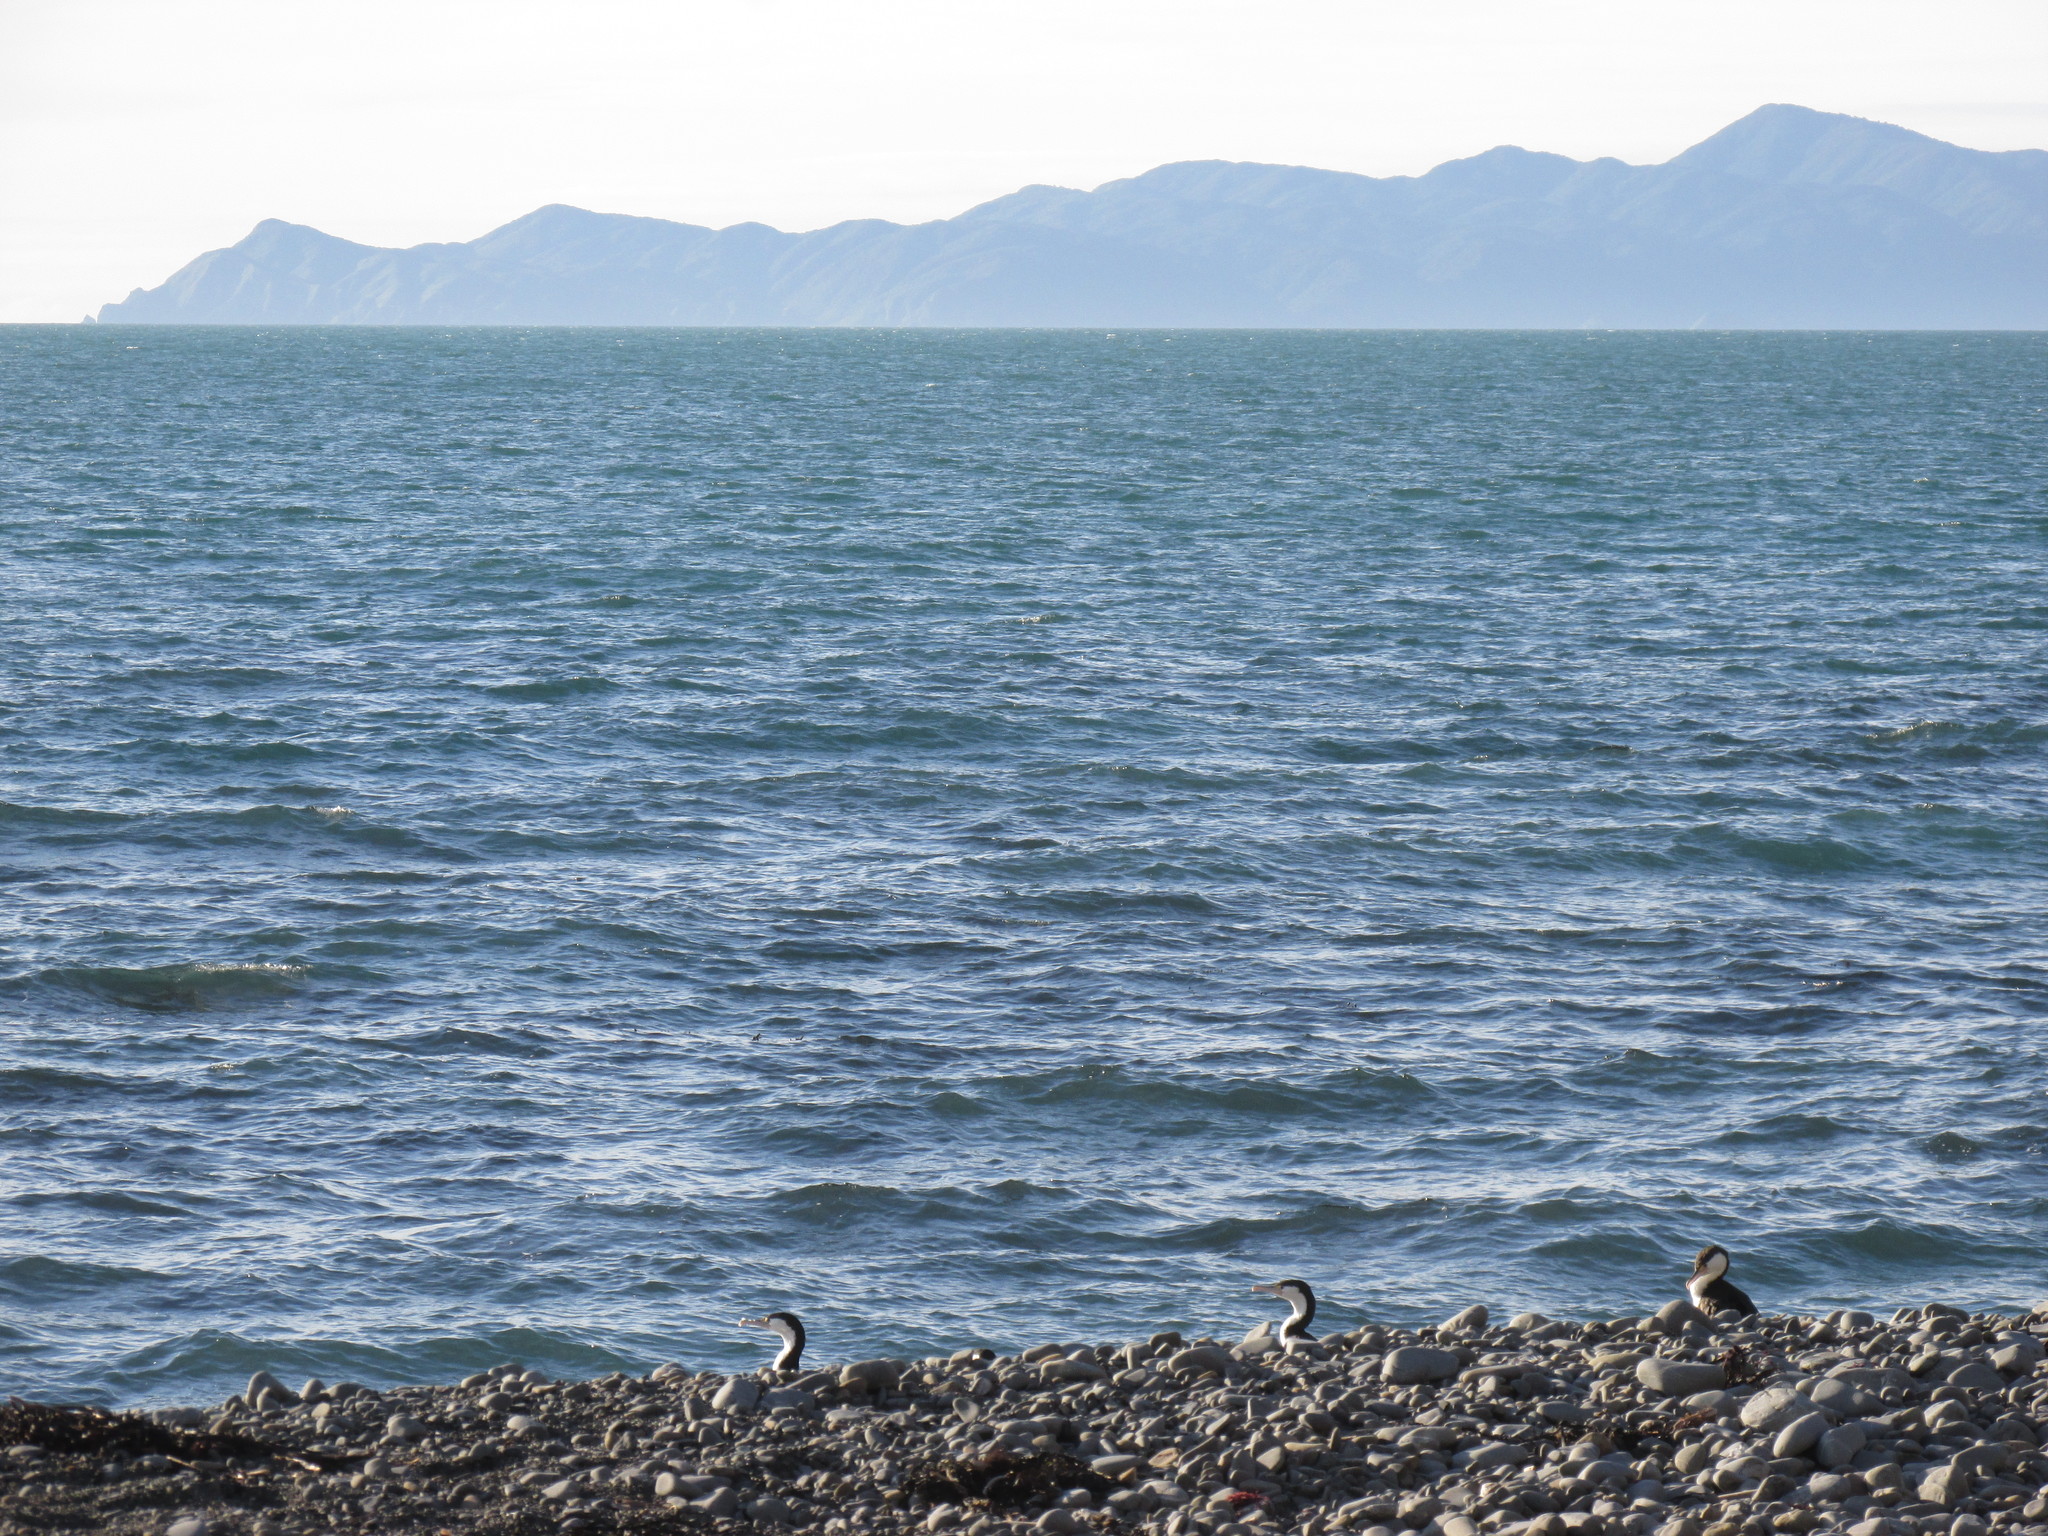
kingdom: Animalia
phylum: Chordata
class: Aves
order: Suliformes
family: Phalacrocoracidae
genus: Phalacrocorax
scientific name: Phalacrocorax varius
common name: Pied cormorant
